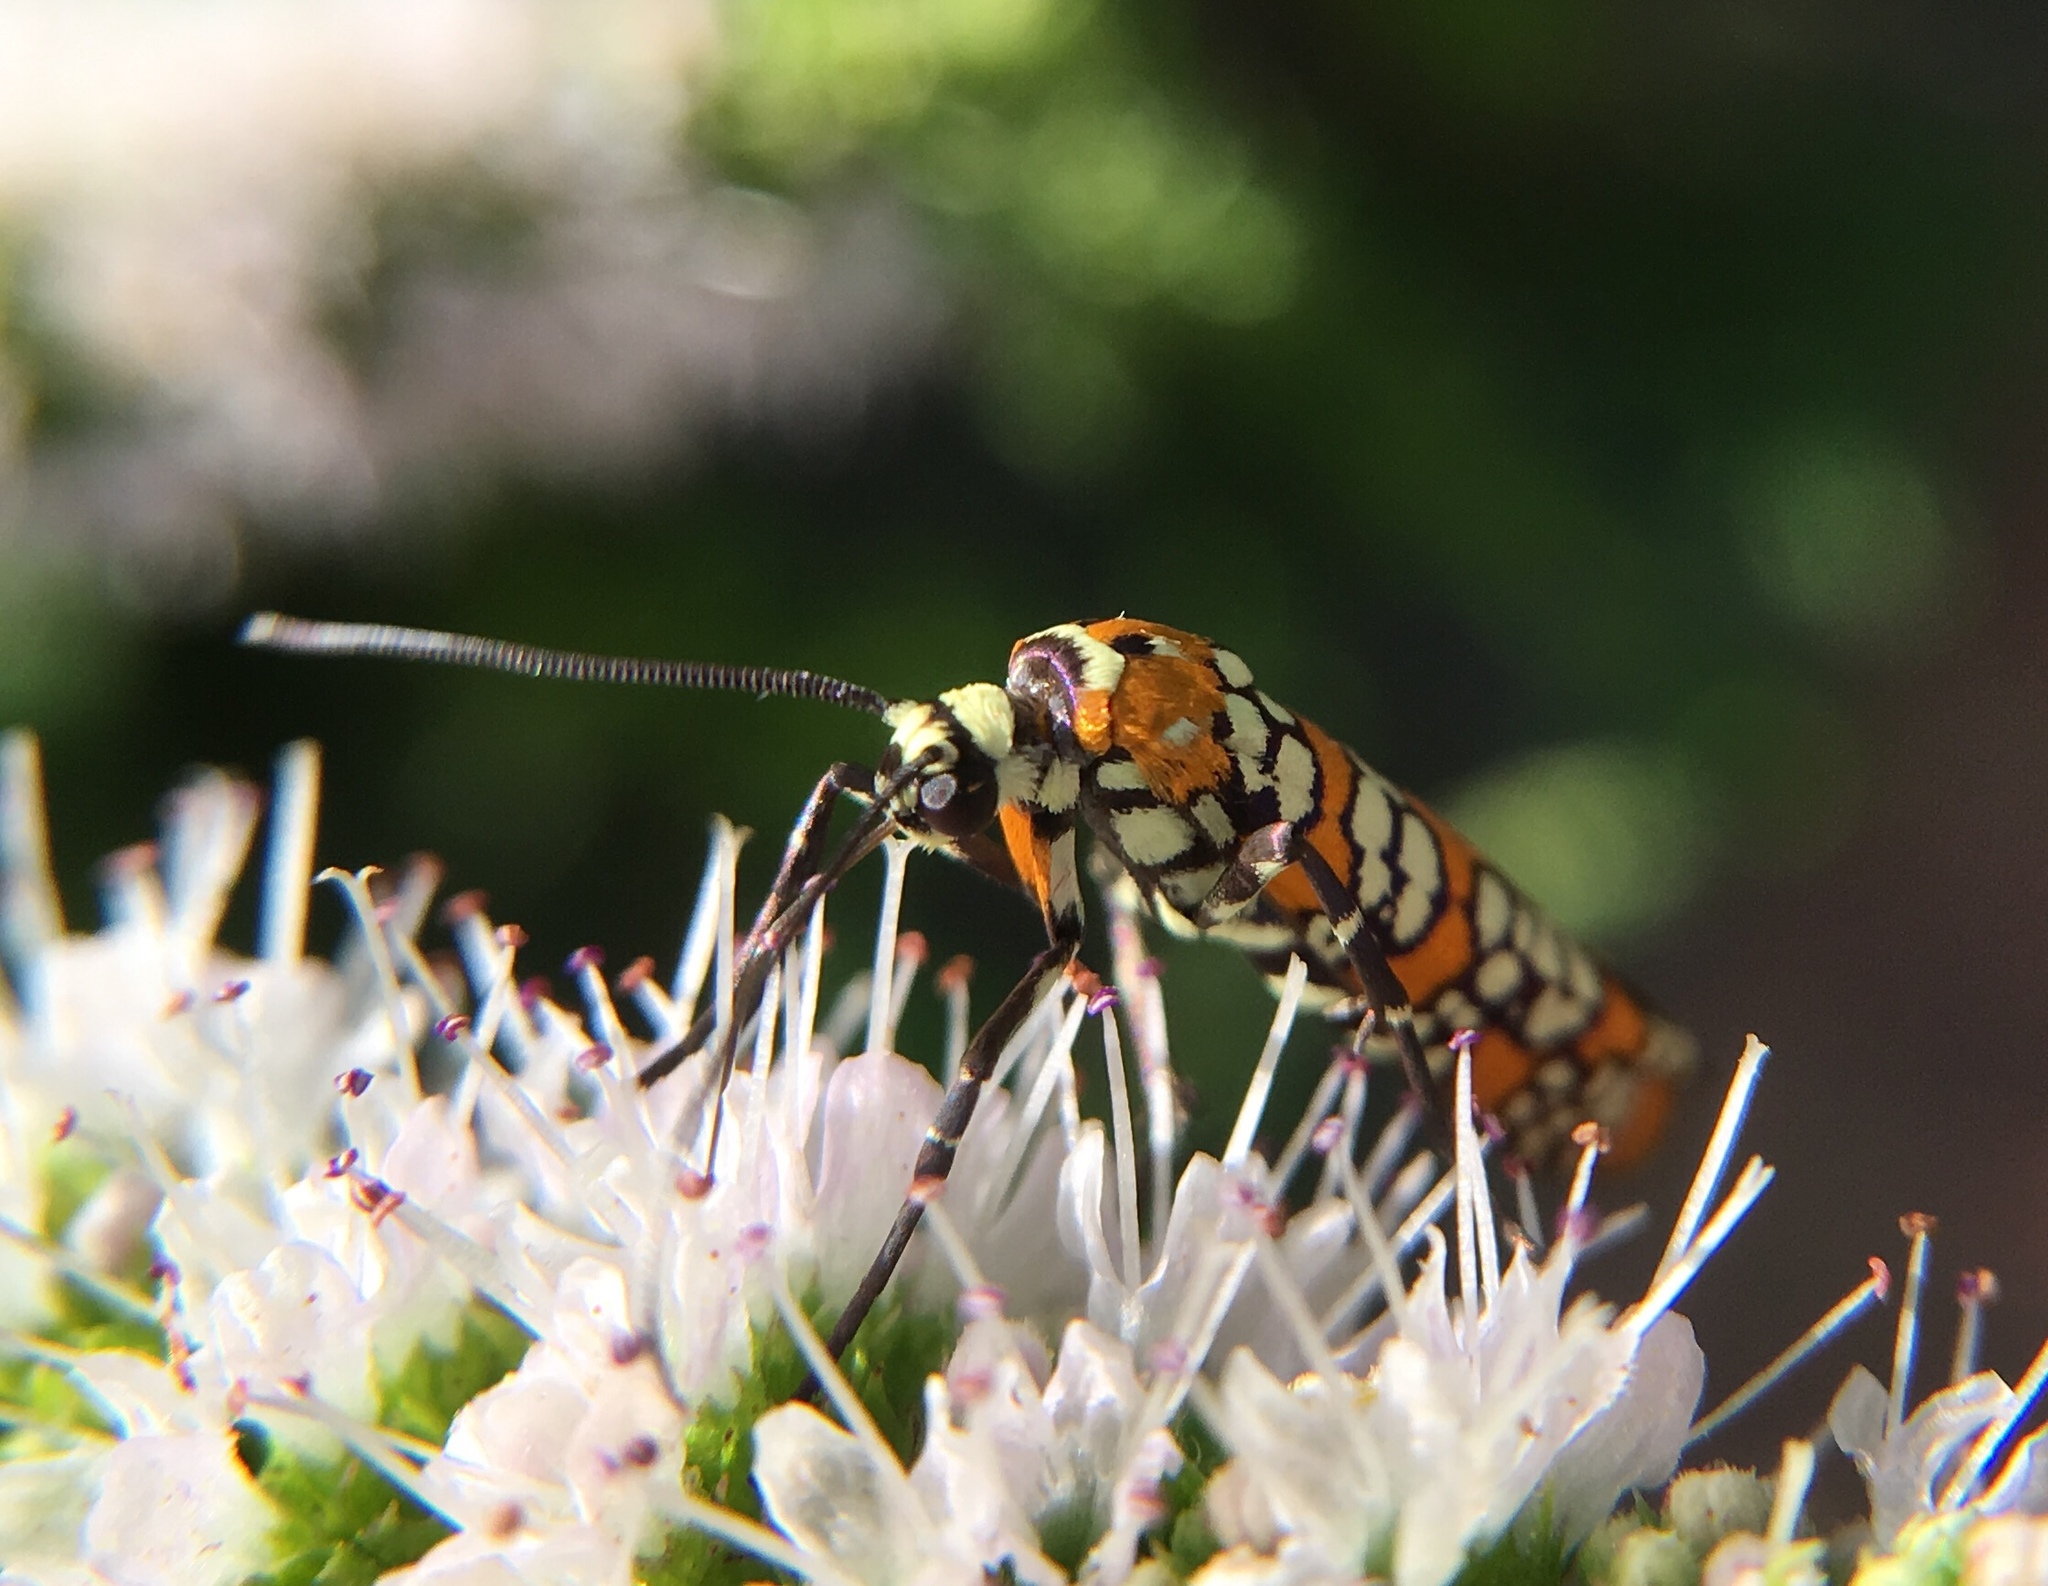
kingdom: Animalia
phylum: Arthropoda
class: Insecta
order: Lepidoptera
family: Attevidae
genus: Atteva
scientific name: Atteva punctella
